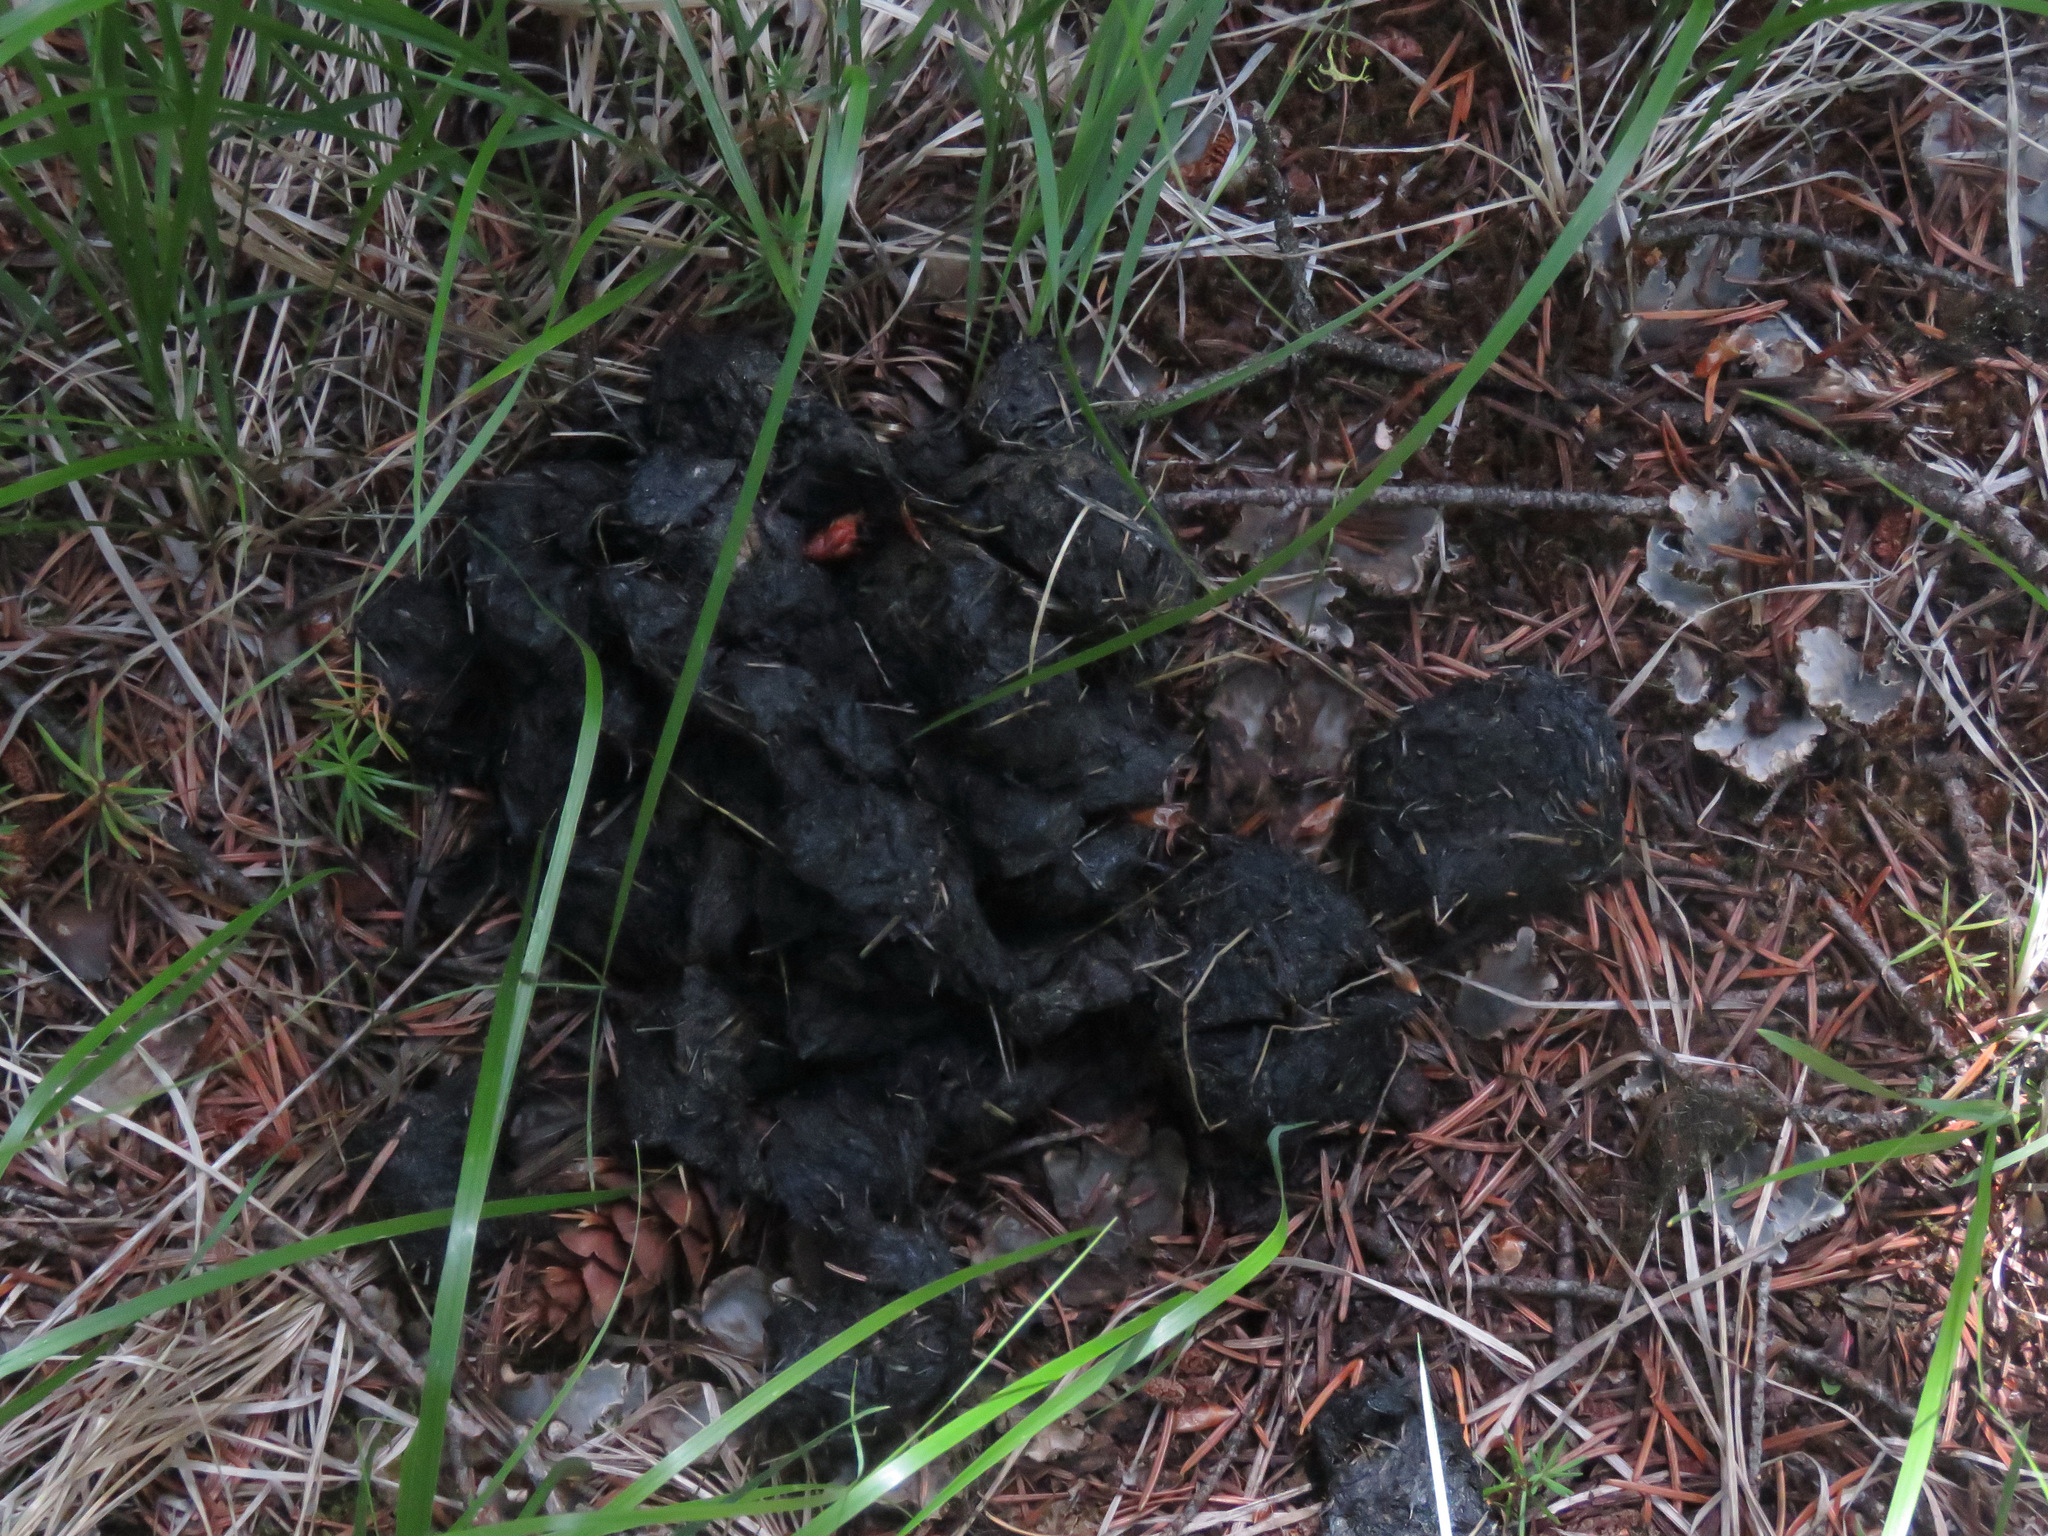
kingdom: Animalia
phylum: Chordata
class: Mammalia
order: Carnivora
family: Ursidae
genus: Ursus
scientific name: Ursus americanus
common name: American black bear
